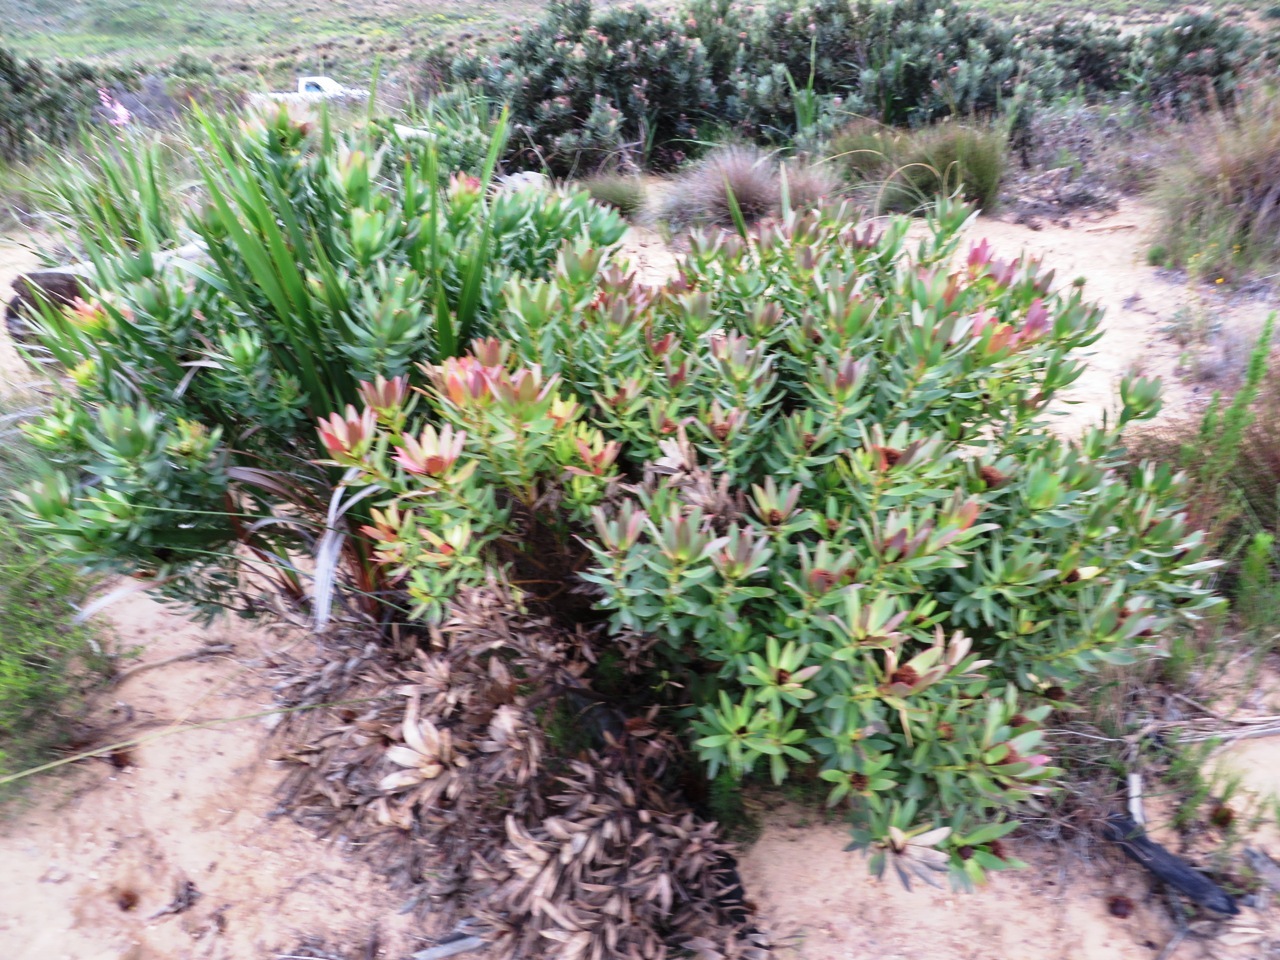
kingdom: Plantae
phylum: Tracheophyta
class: Magnoliopsida
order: Proteales
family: Proteaceae
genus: Leucadendron
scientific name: Leucadendron sessile
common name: Western sunbush
